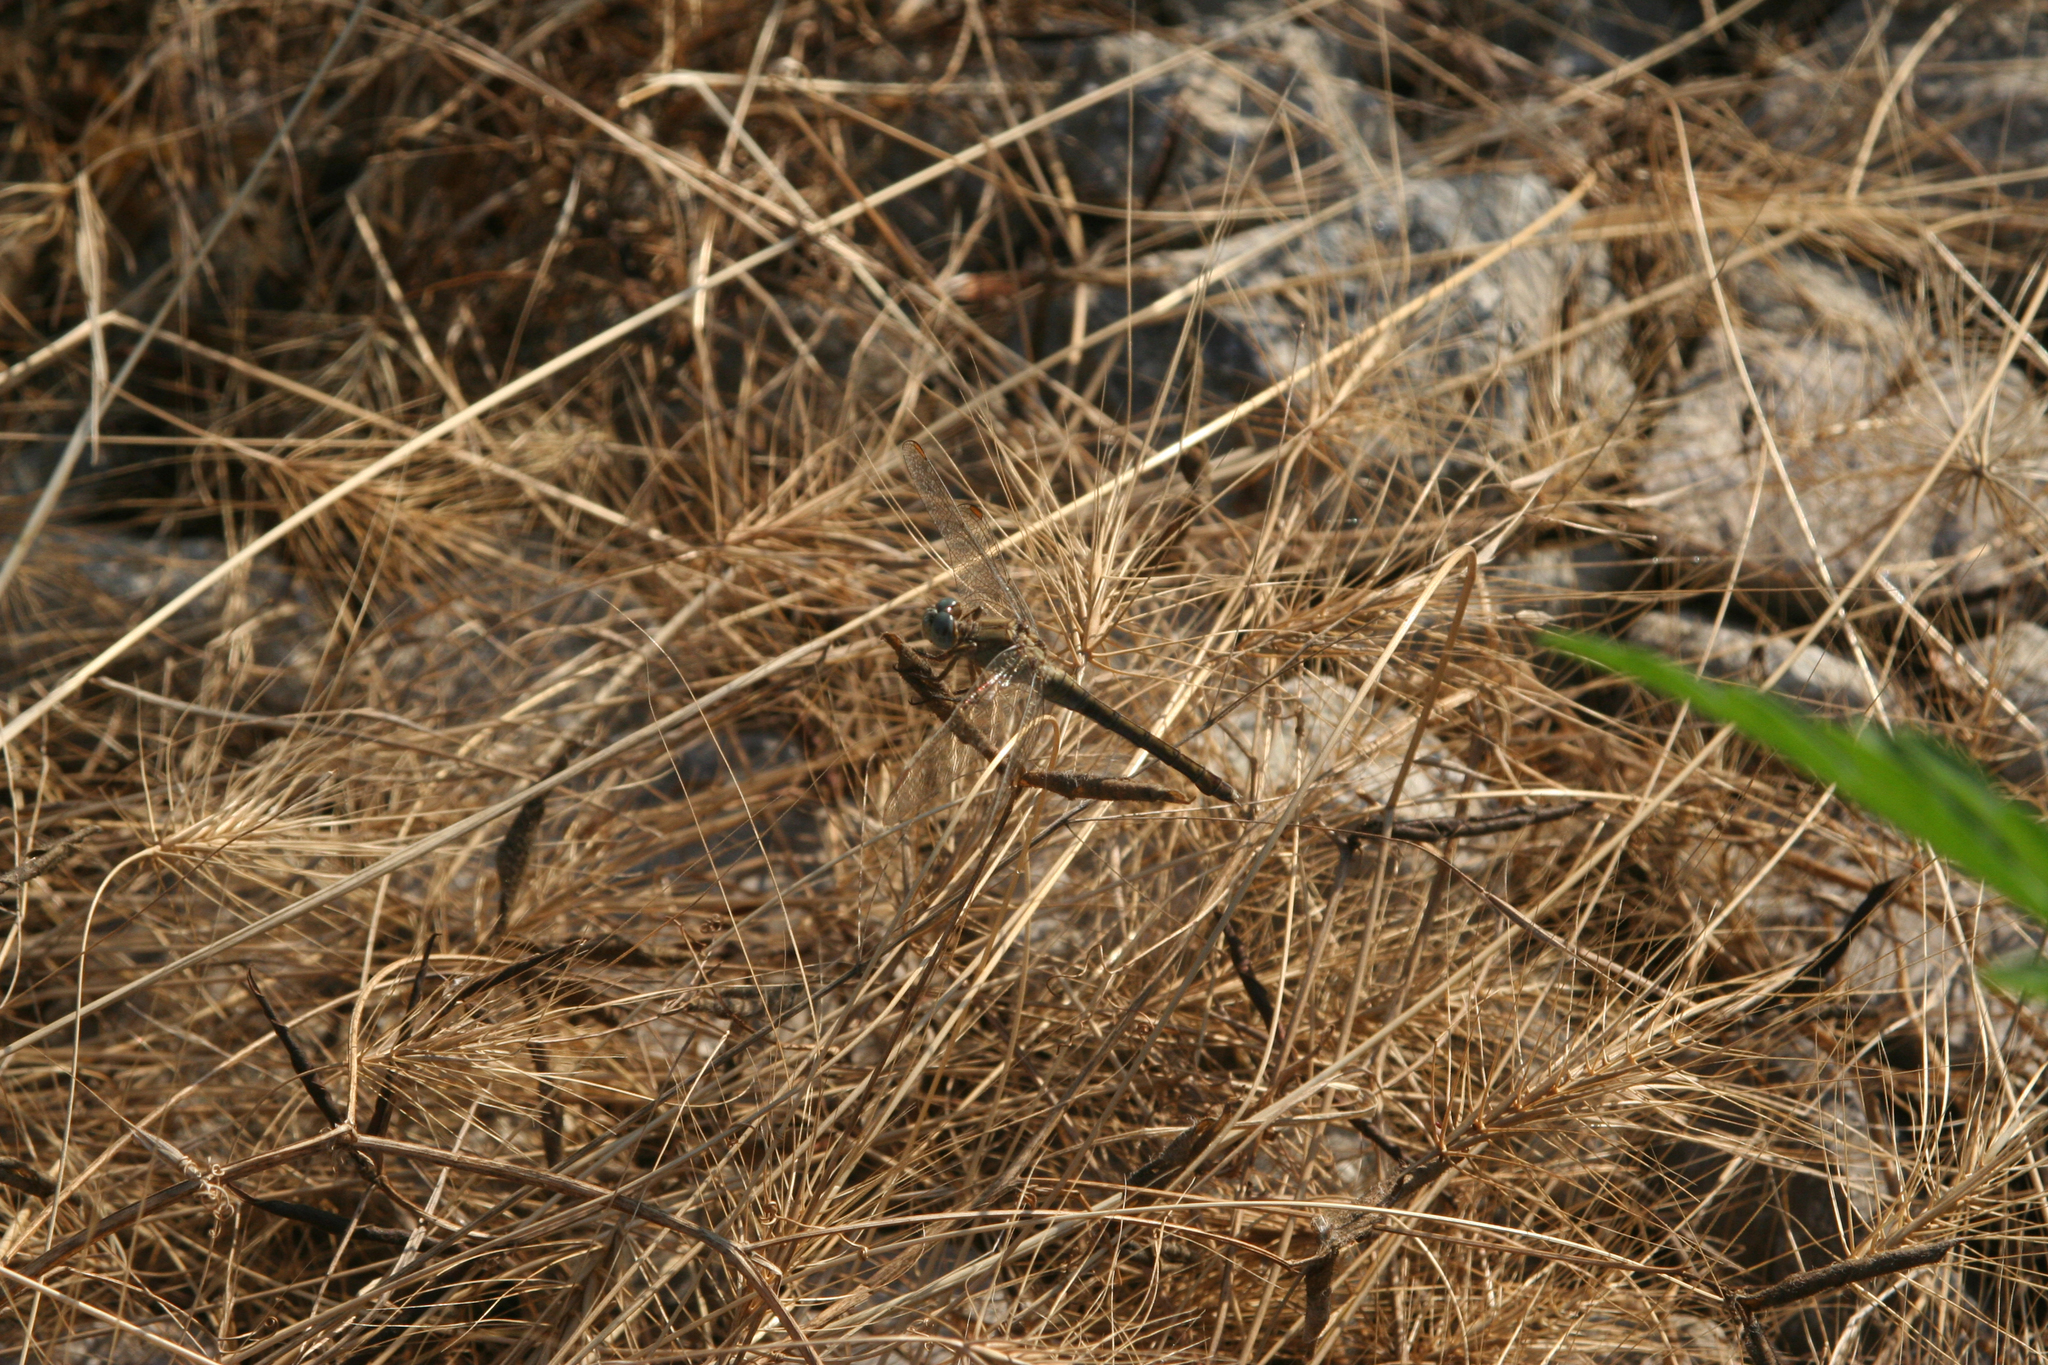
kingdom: Animalia
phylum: Arthropoda
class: Insecta
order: Odonata
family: Libellulidae
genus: Orthetrum
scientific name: Orthetrum coerulescens
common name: Keeled skimmer
